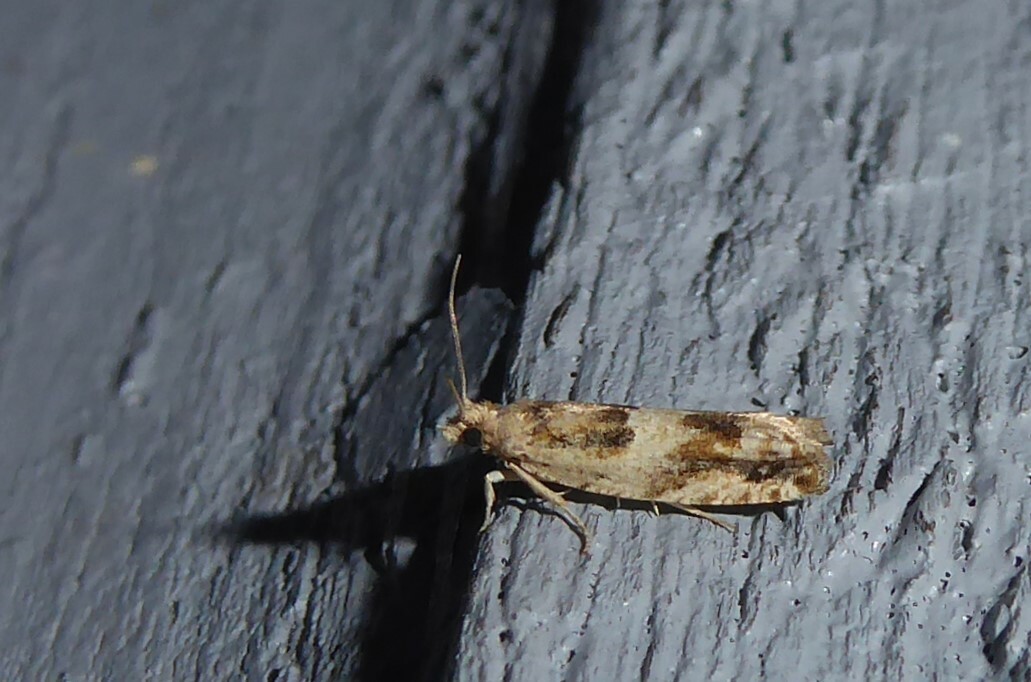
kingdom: Animalia
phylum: Arthropoda
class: Insecta
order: Lepidoptera
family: Tortricidae
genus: Crocidosema
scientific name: Crocidosema plebejana
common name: Southern bell
